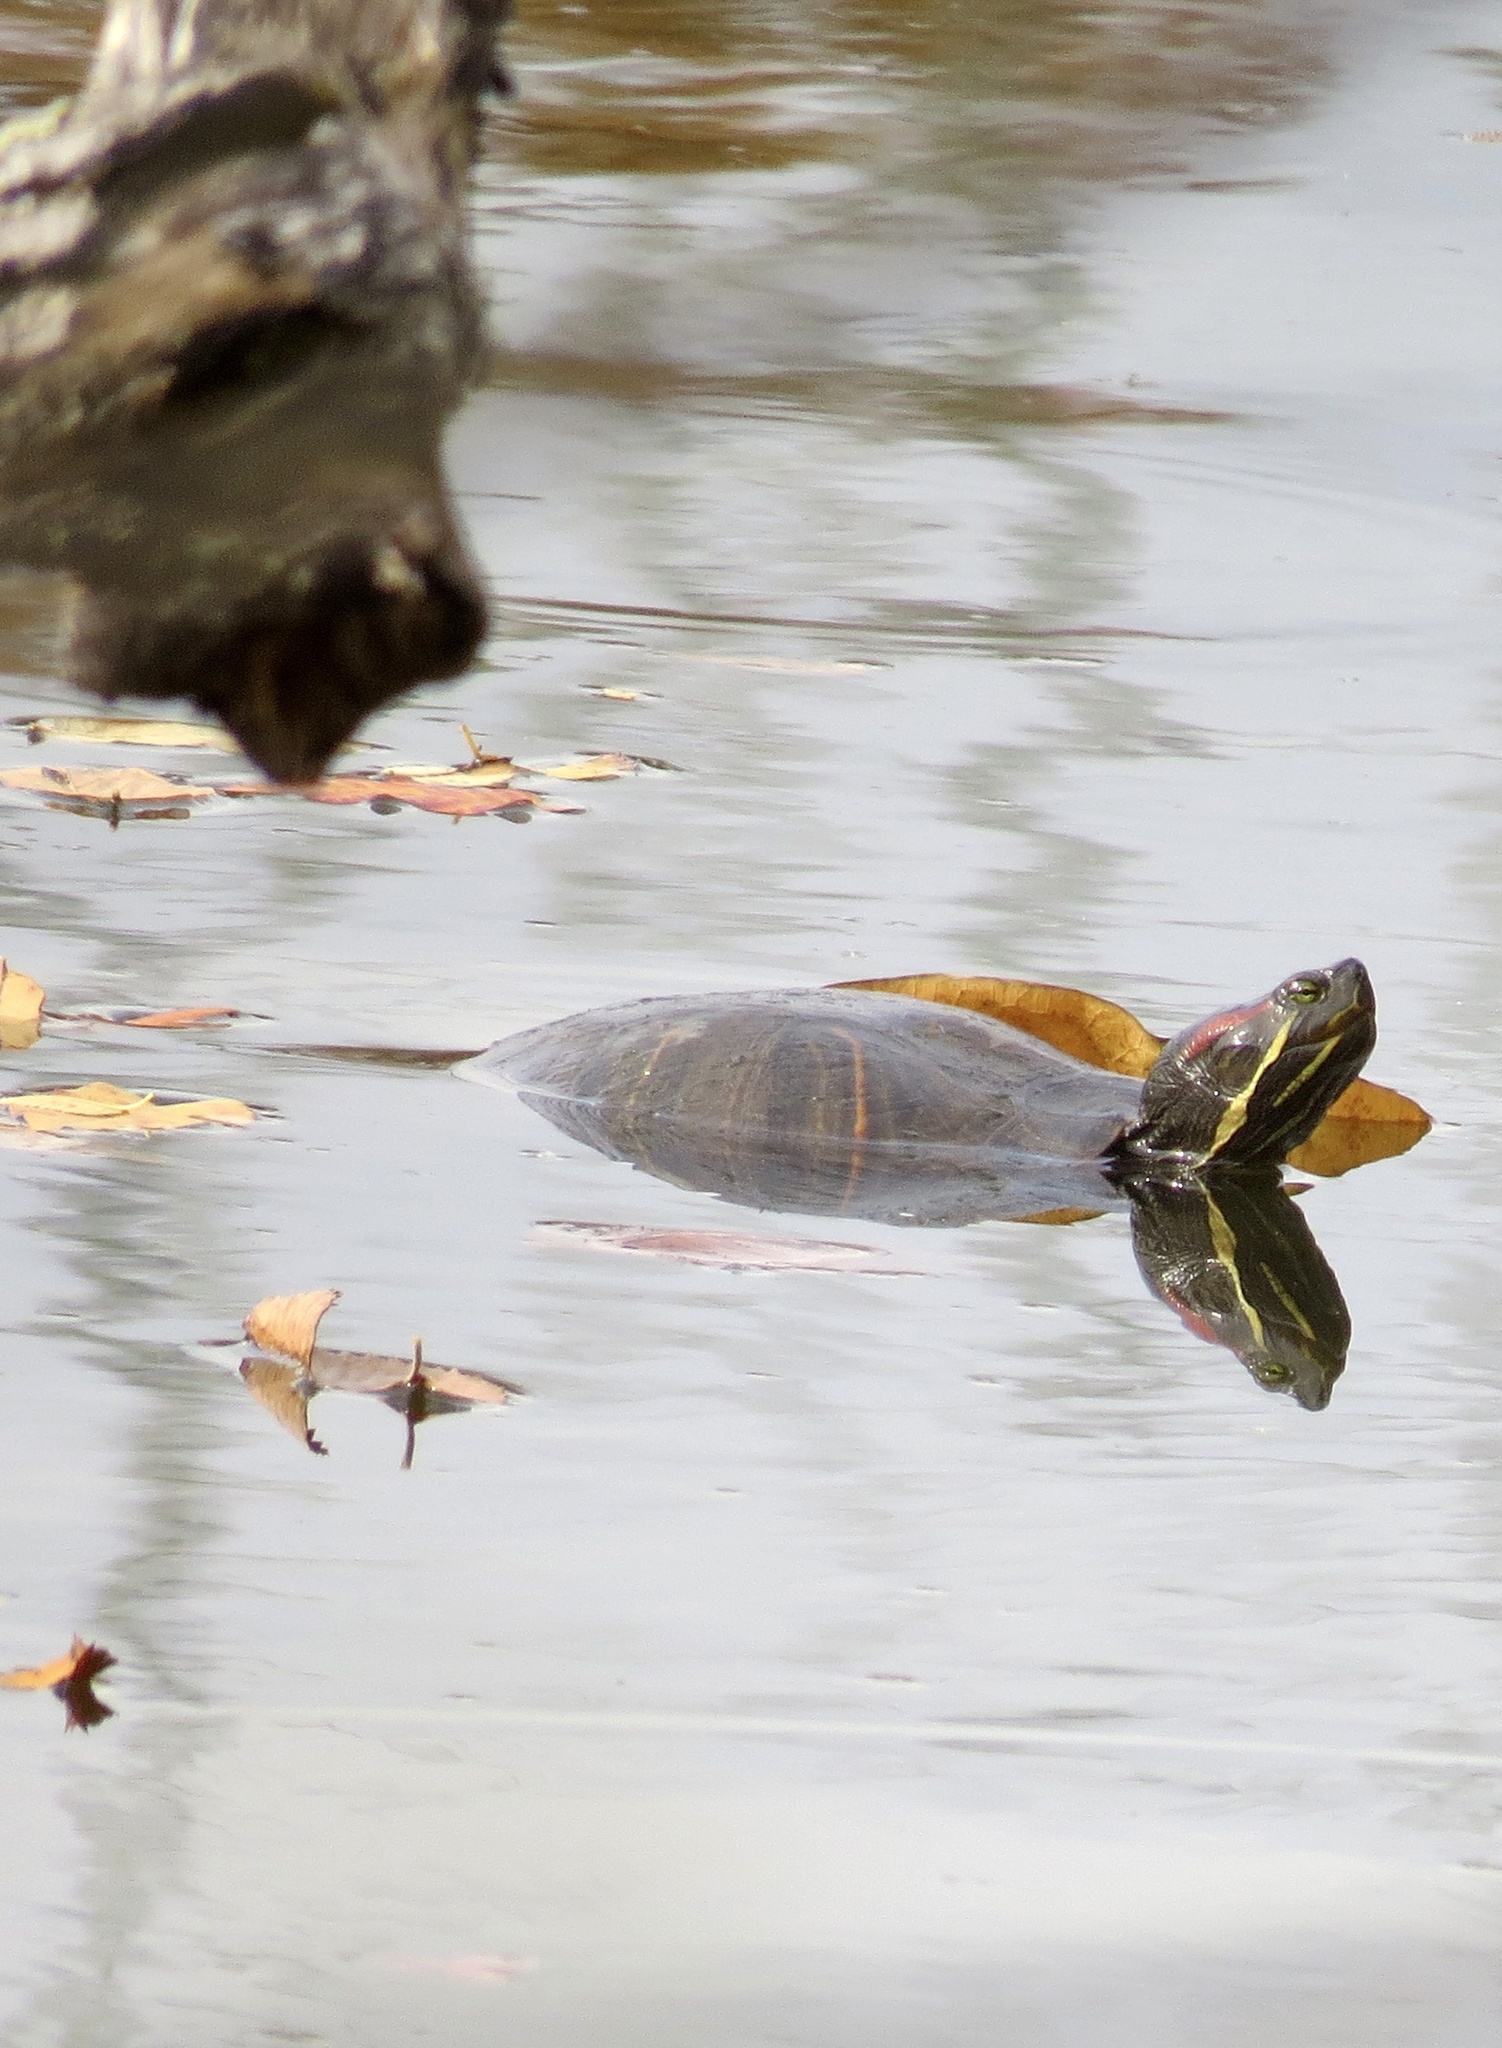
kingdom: Animalia
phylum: Chordata
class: Testudines
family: Emydidae
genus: Trachemys
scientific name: Trachemys scripta
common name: Slider
